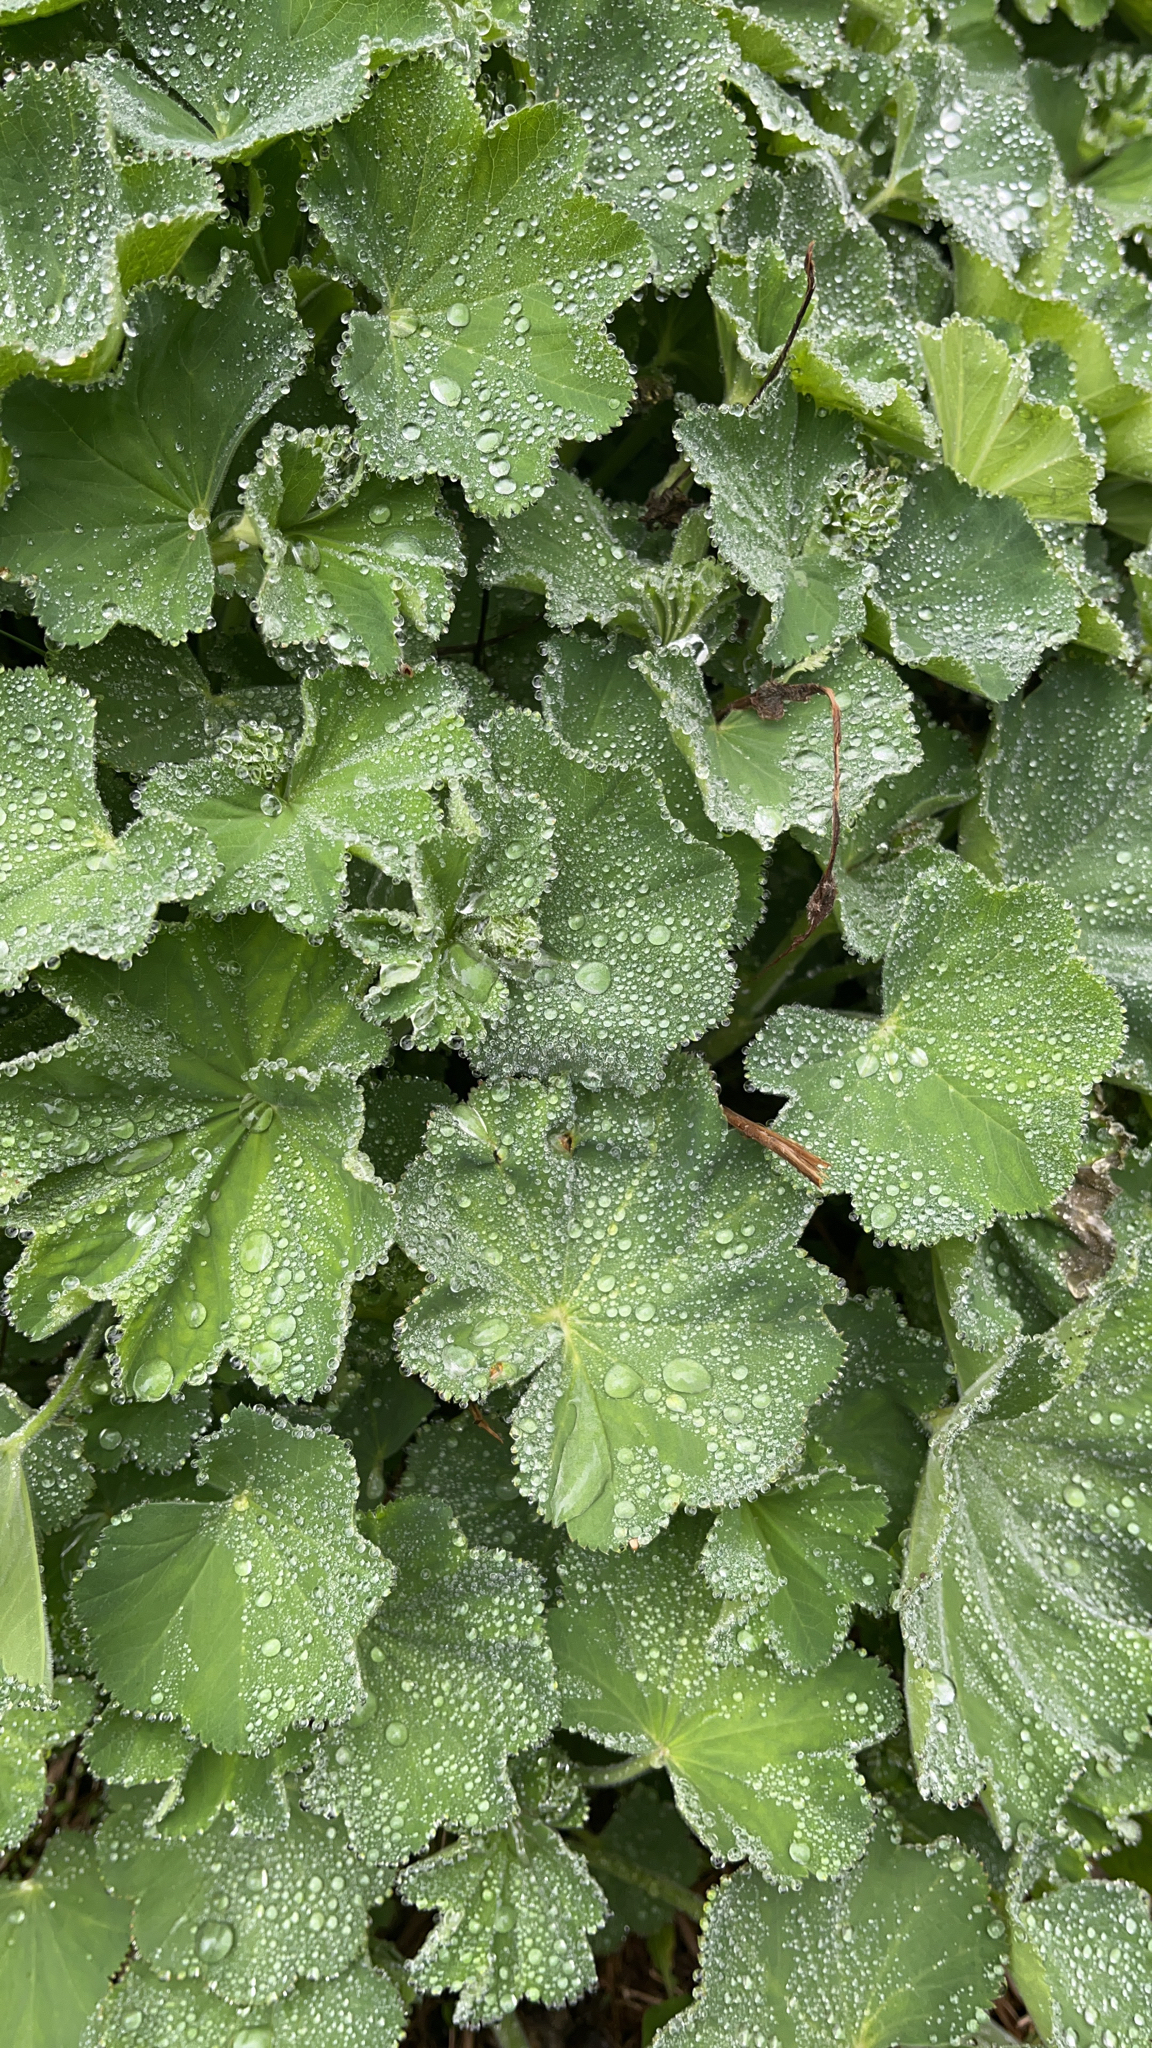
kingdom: Plantae
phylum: Tracheophyta
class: Magnoliopsida
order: Rosales
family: Rosaceae
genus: Alchemilla
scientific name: Alchemilla mollis
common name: Lady's-mantle
